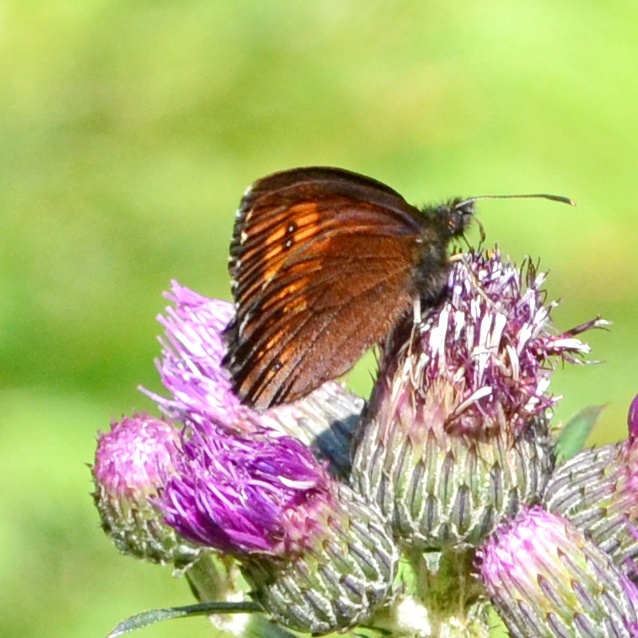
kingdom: Animalia
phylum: Arthropoda
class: Insecta
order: Lepidoptera
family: Nymphalidae
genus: Erebia
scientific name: Erebia euryale
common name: Large ringlet
